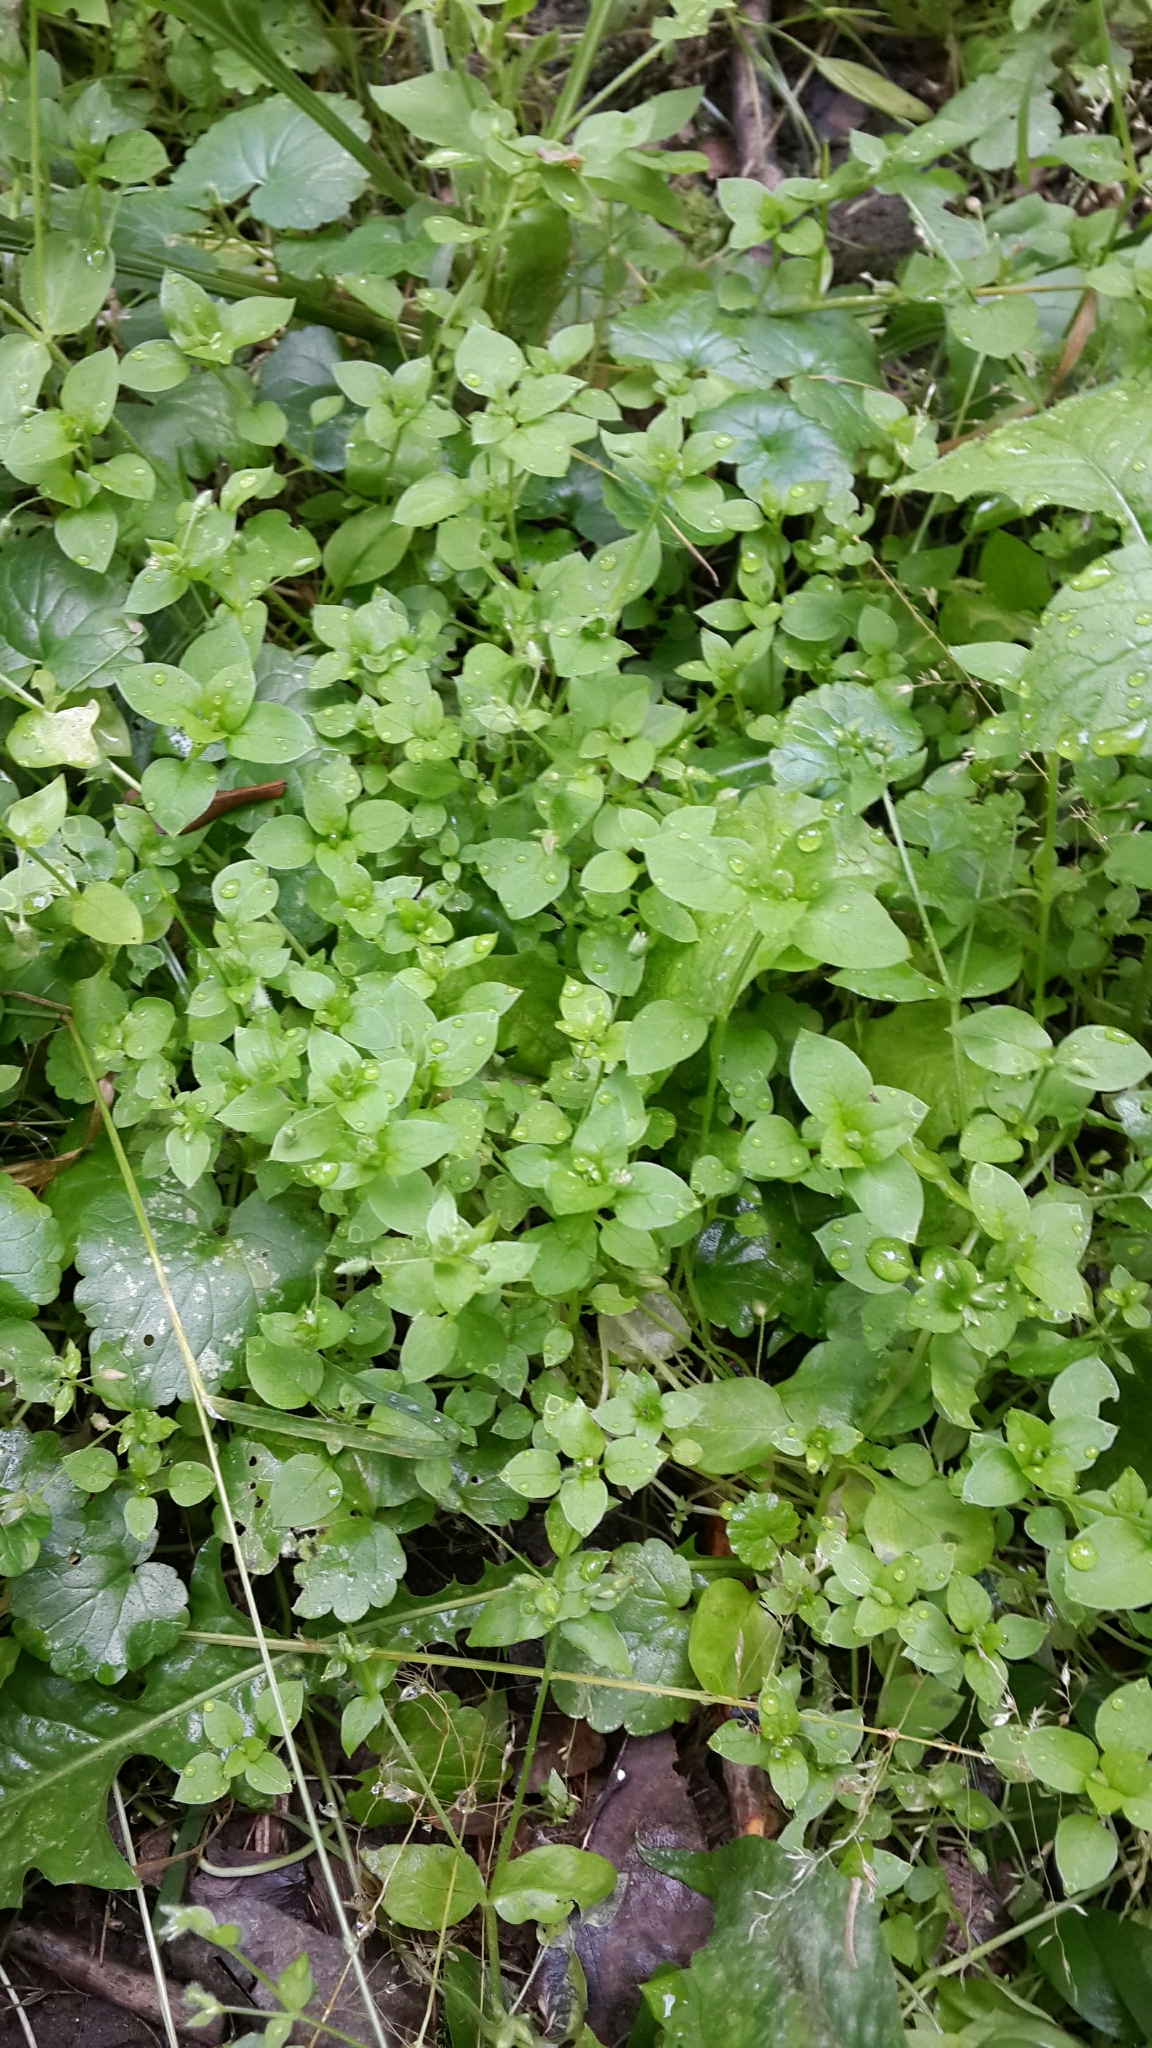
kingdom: Plantae
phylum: Tracheophyta
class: Magnoliopsida
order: Caryophyllales
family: Caryophyllaceae
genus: Stellaria
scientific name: Stellaria media
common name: Common chickweed
